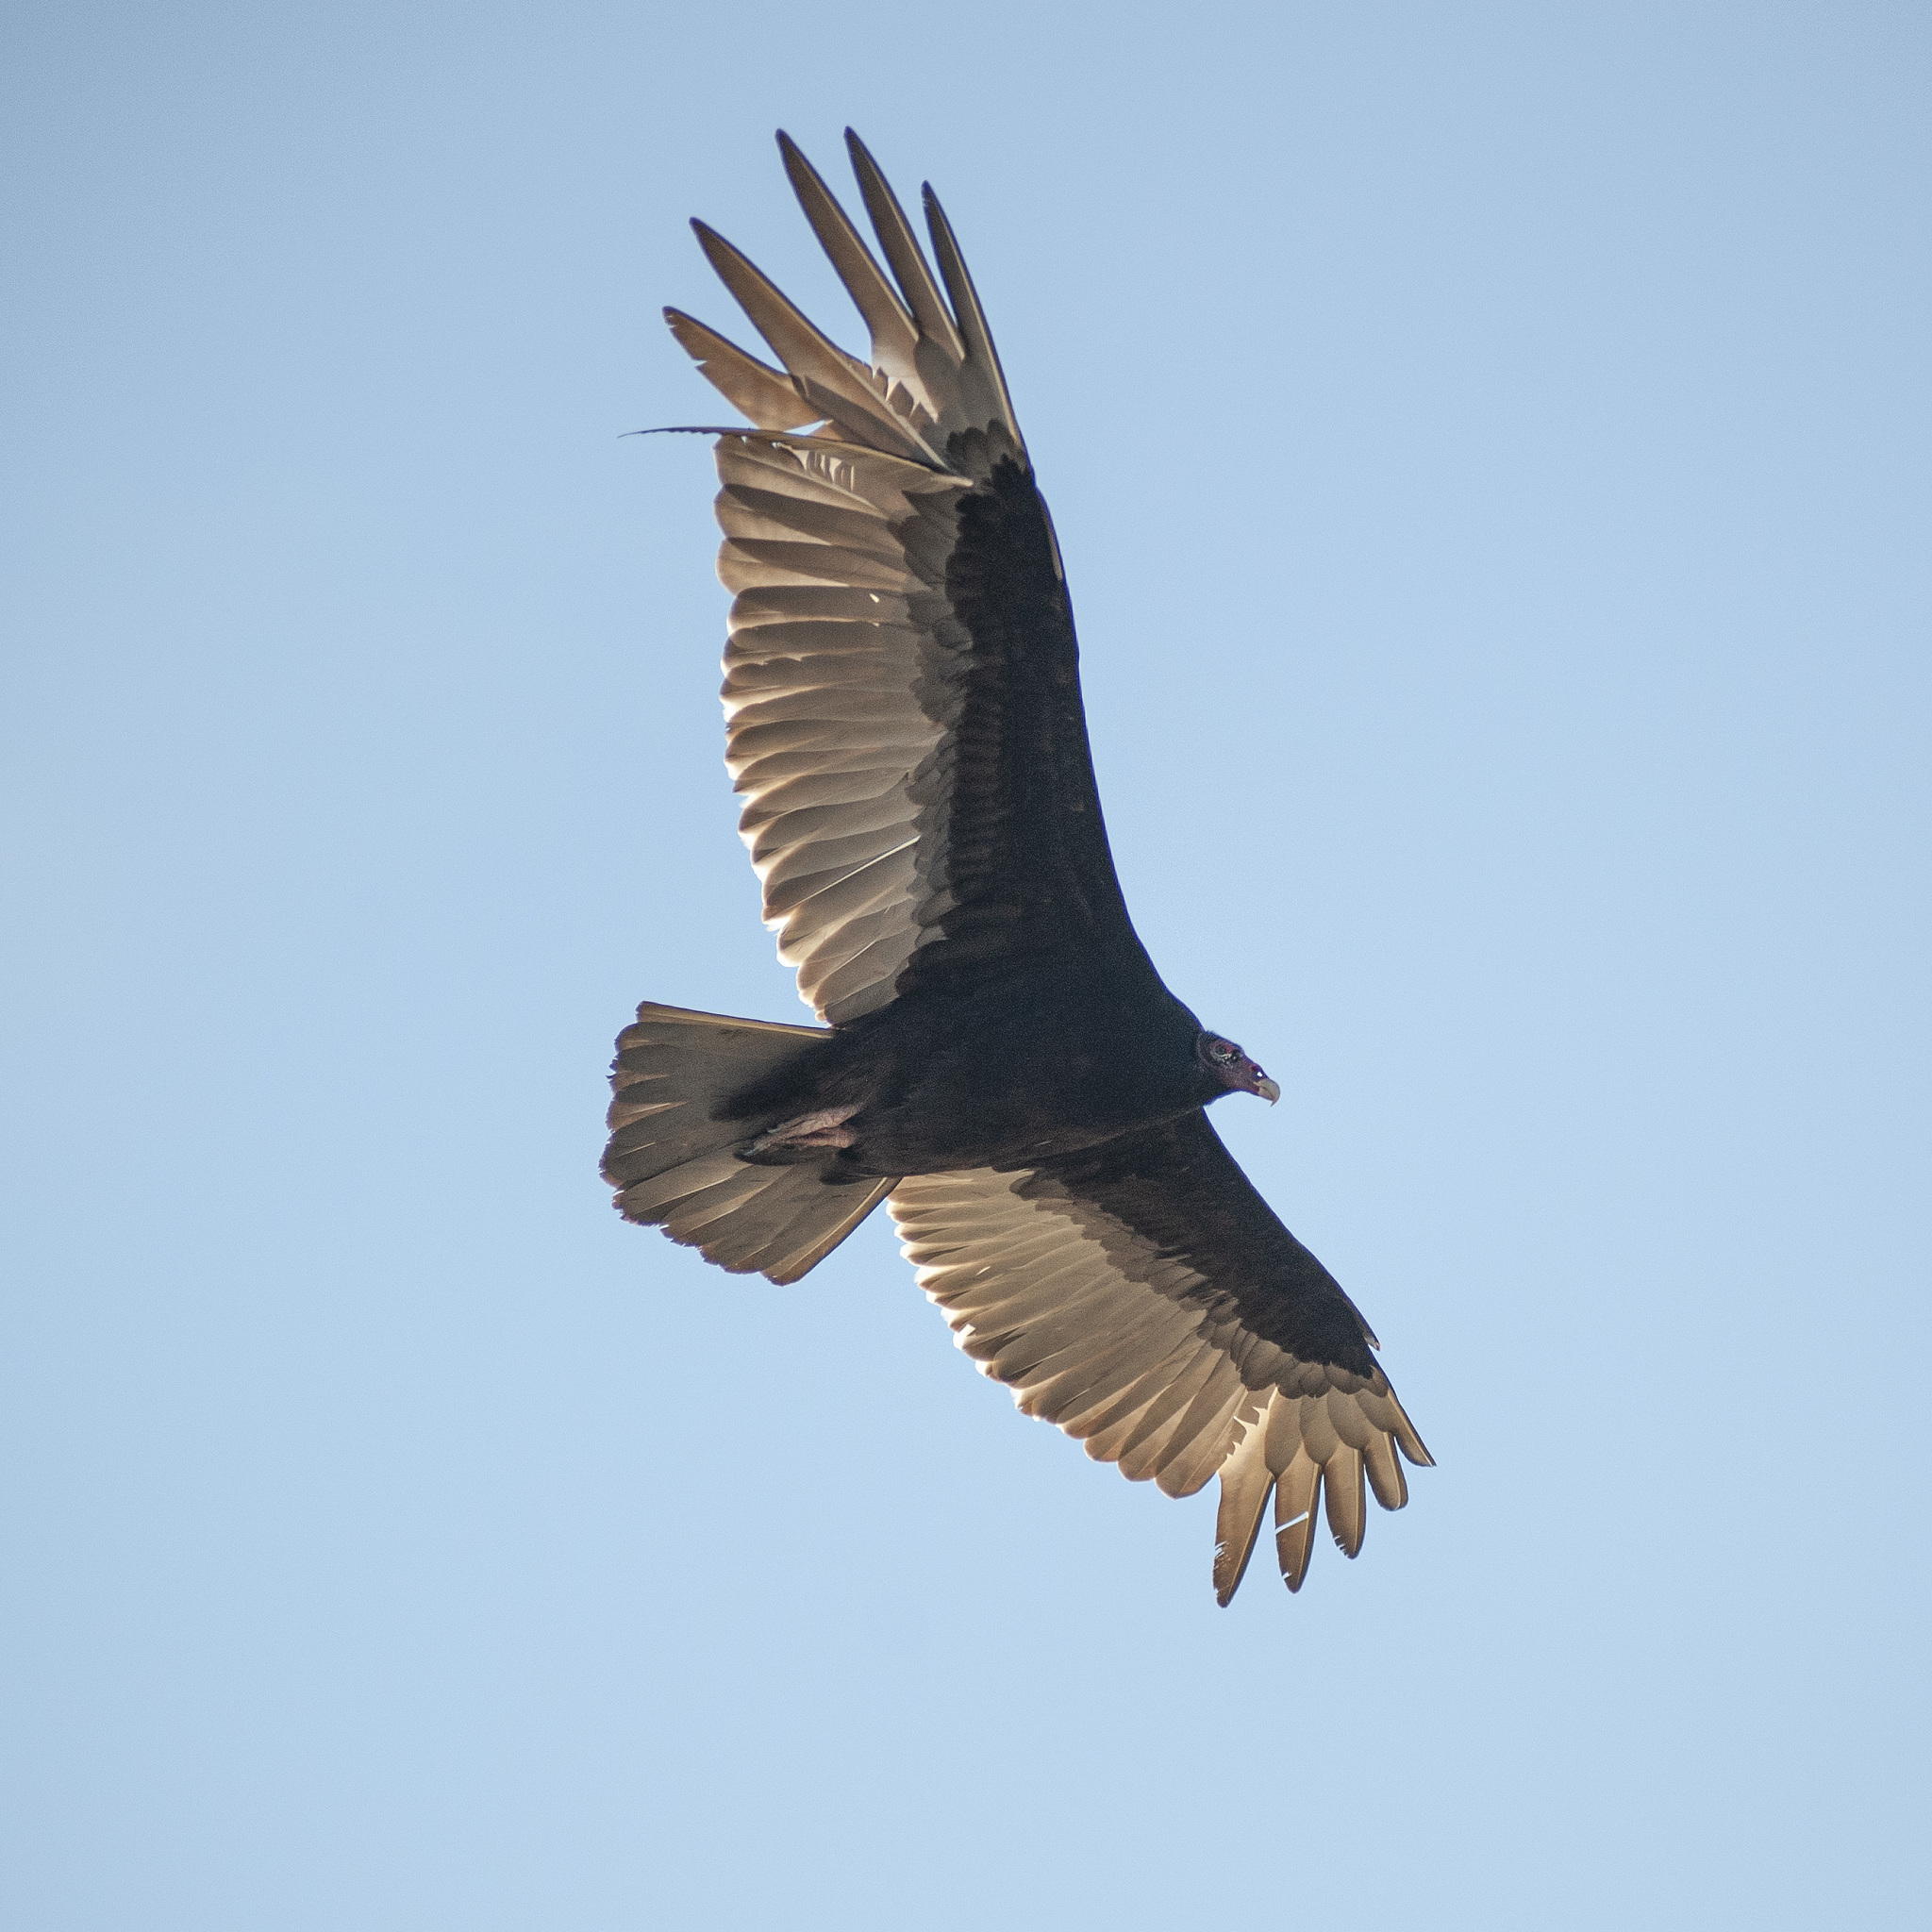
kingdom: Animalia
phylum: Chordata
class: Aves
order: Accipitriformes
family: Cathartidae
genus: Cathartes
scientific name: Cathartes aura
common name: Turkey vulture
